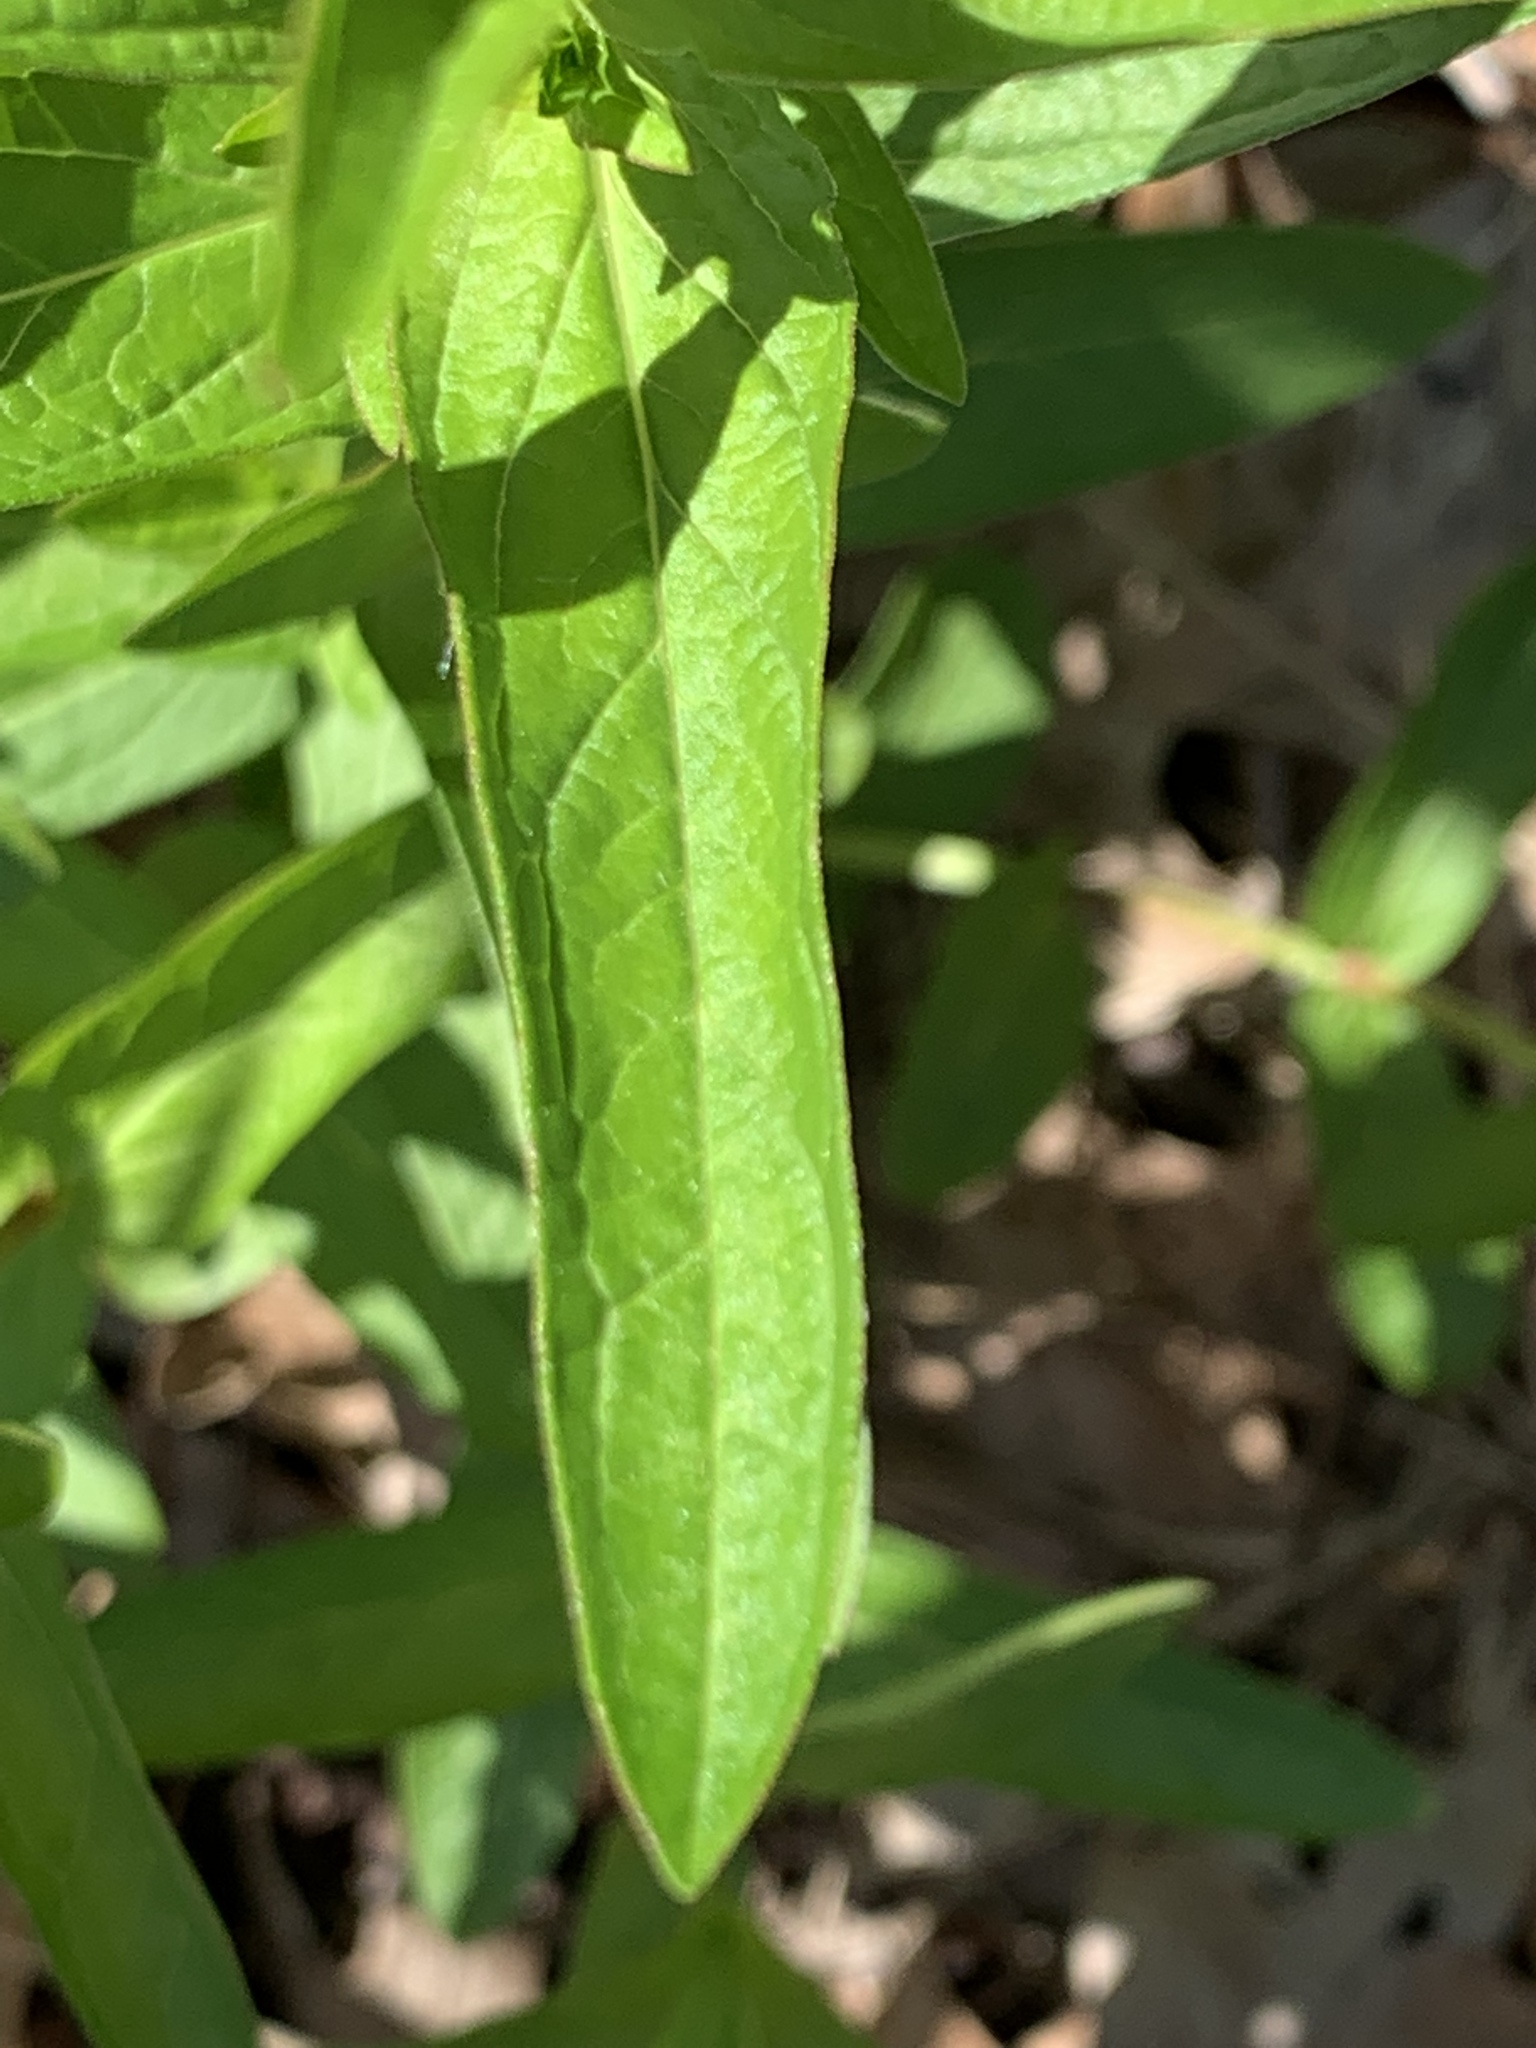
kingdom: Plantae
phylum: Tracheophyta
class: Magnoliopsida
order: Myrtales
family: Lythraceae
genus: Lythrum
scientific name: Lythrum salicaria
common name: Purple loosestrife
